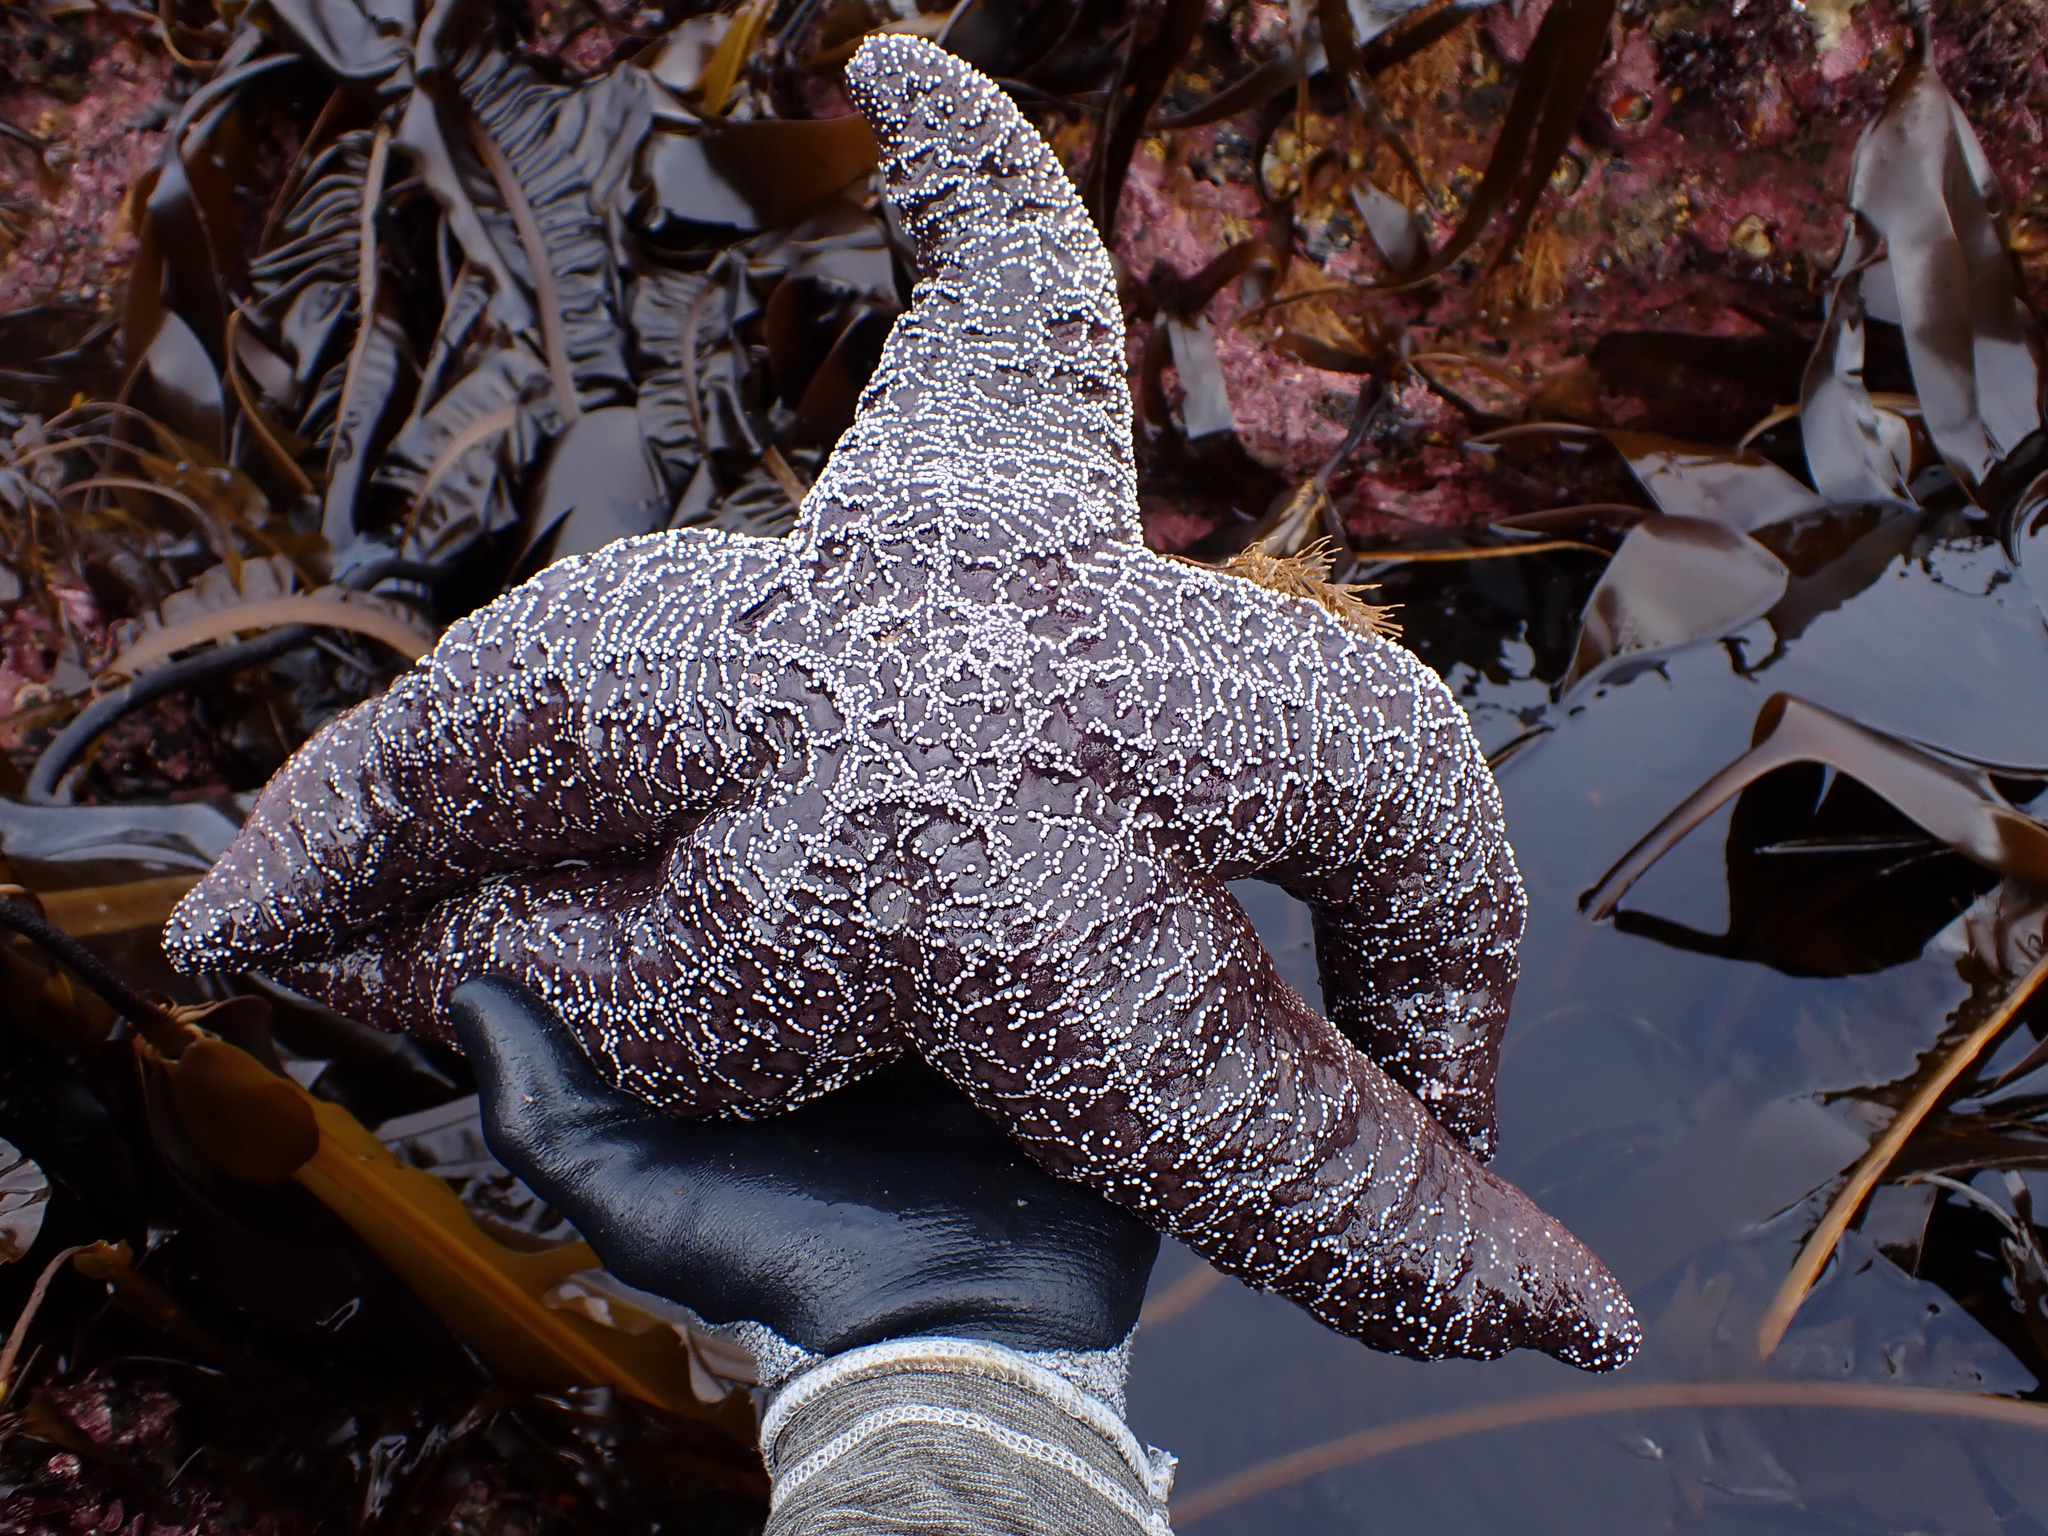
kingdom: Animalia
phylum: Echinodermata
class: Asteroidea
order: Forcipulatida
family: Asteriidae
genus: Pisaster
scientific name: Pisaster ochraceus
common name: Ochre stars
